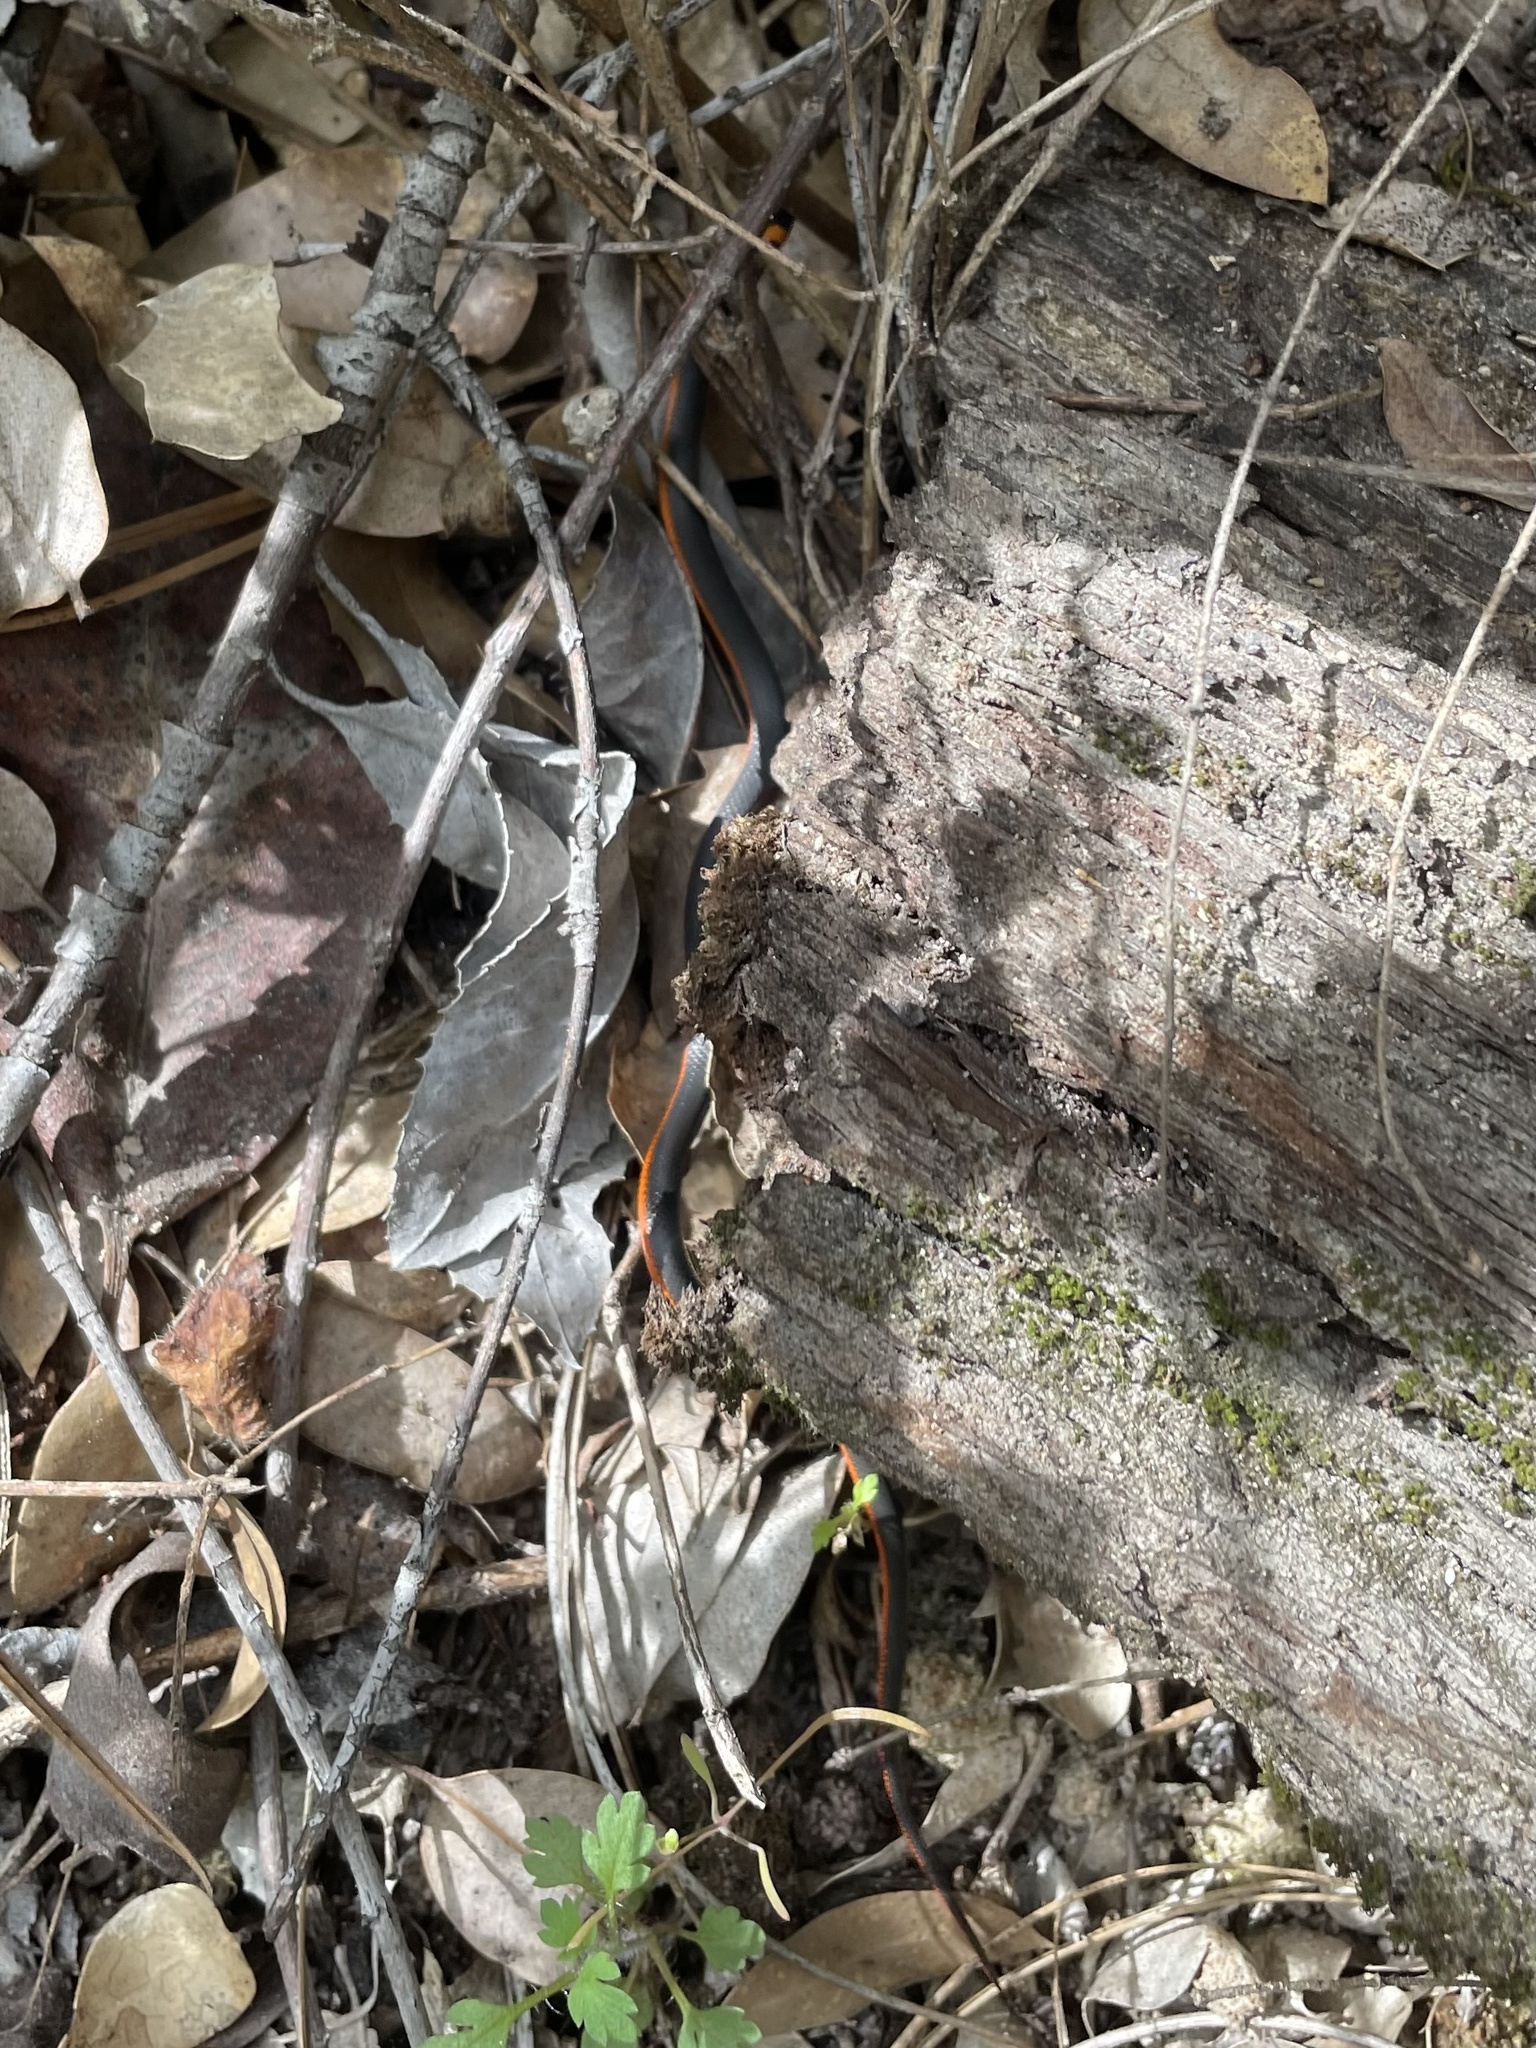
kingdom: Animalia
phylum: Chordata
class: Squamata
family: Colubridae
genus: Diadophis
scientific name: Diadophis punctatus
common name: Ringneck snake
